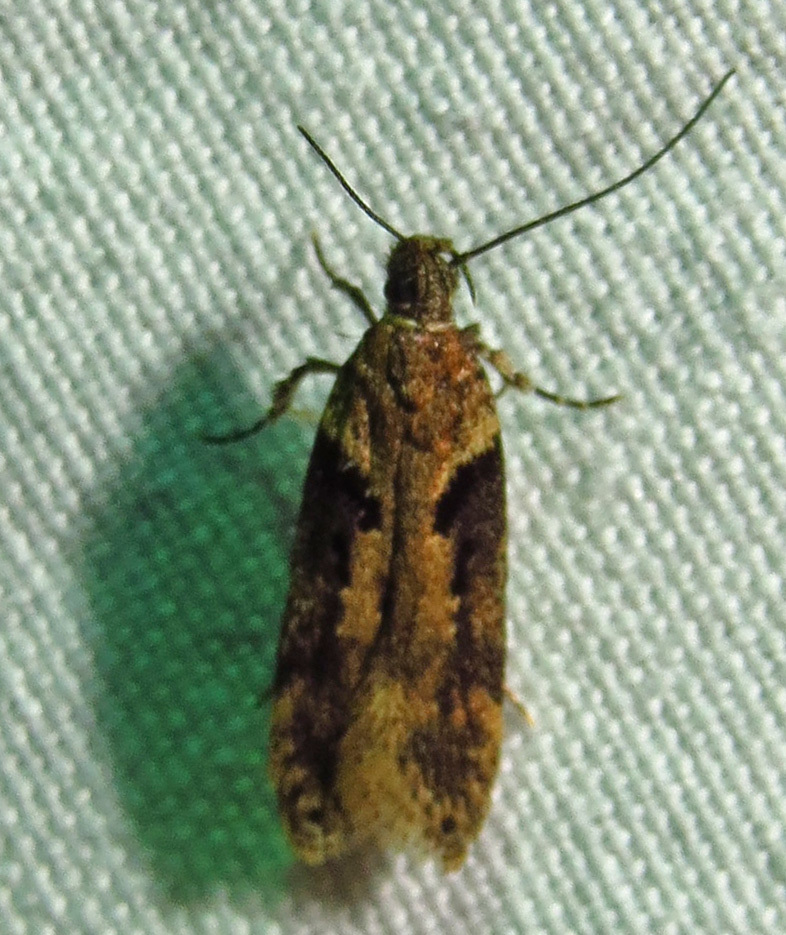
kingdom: Animalia
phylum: Arthropoda
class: Insecta
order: Lepidoptera
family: Gelechiidae
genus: Chionodes
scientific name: Chionodes mediofuscella
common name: Black-smudged chionodes moth
